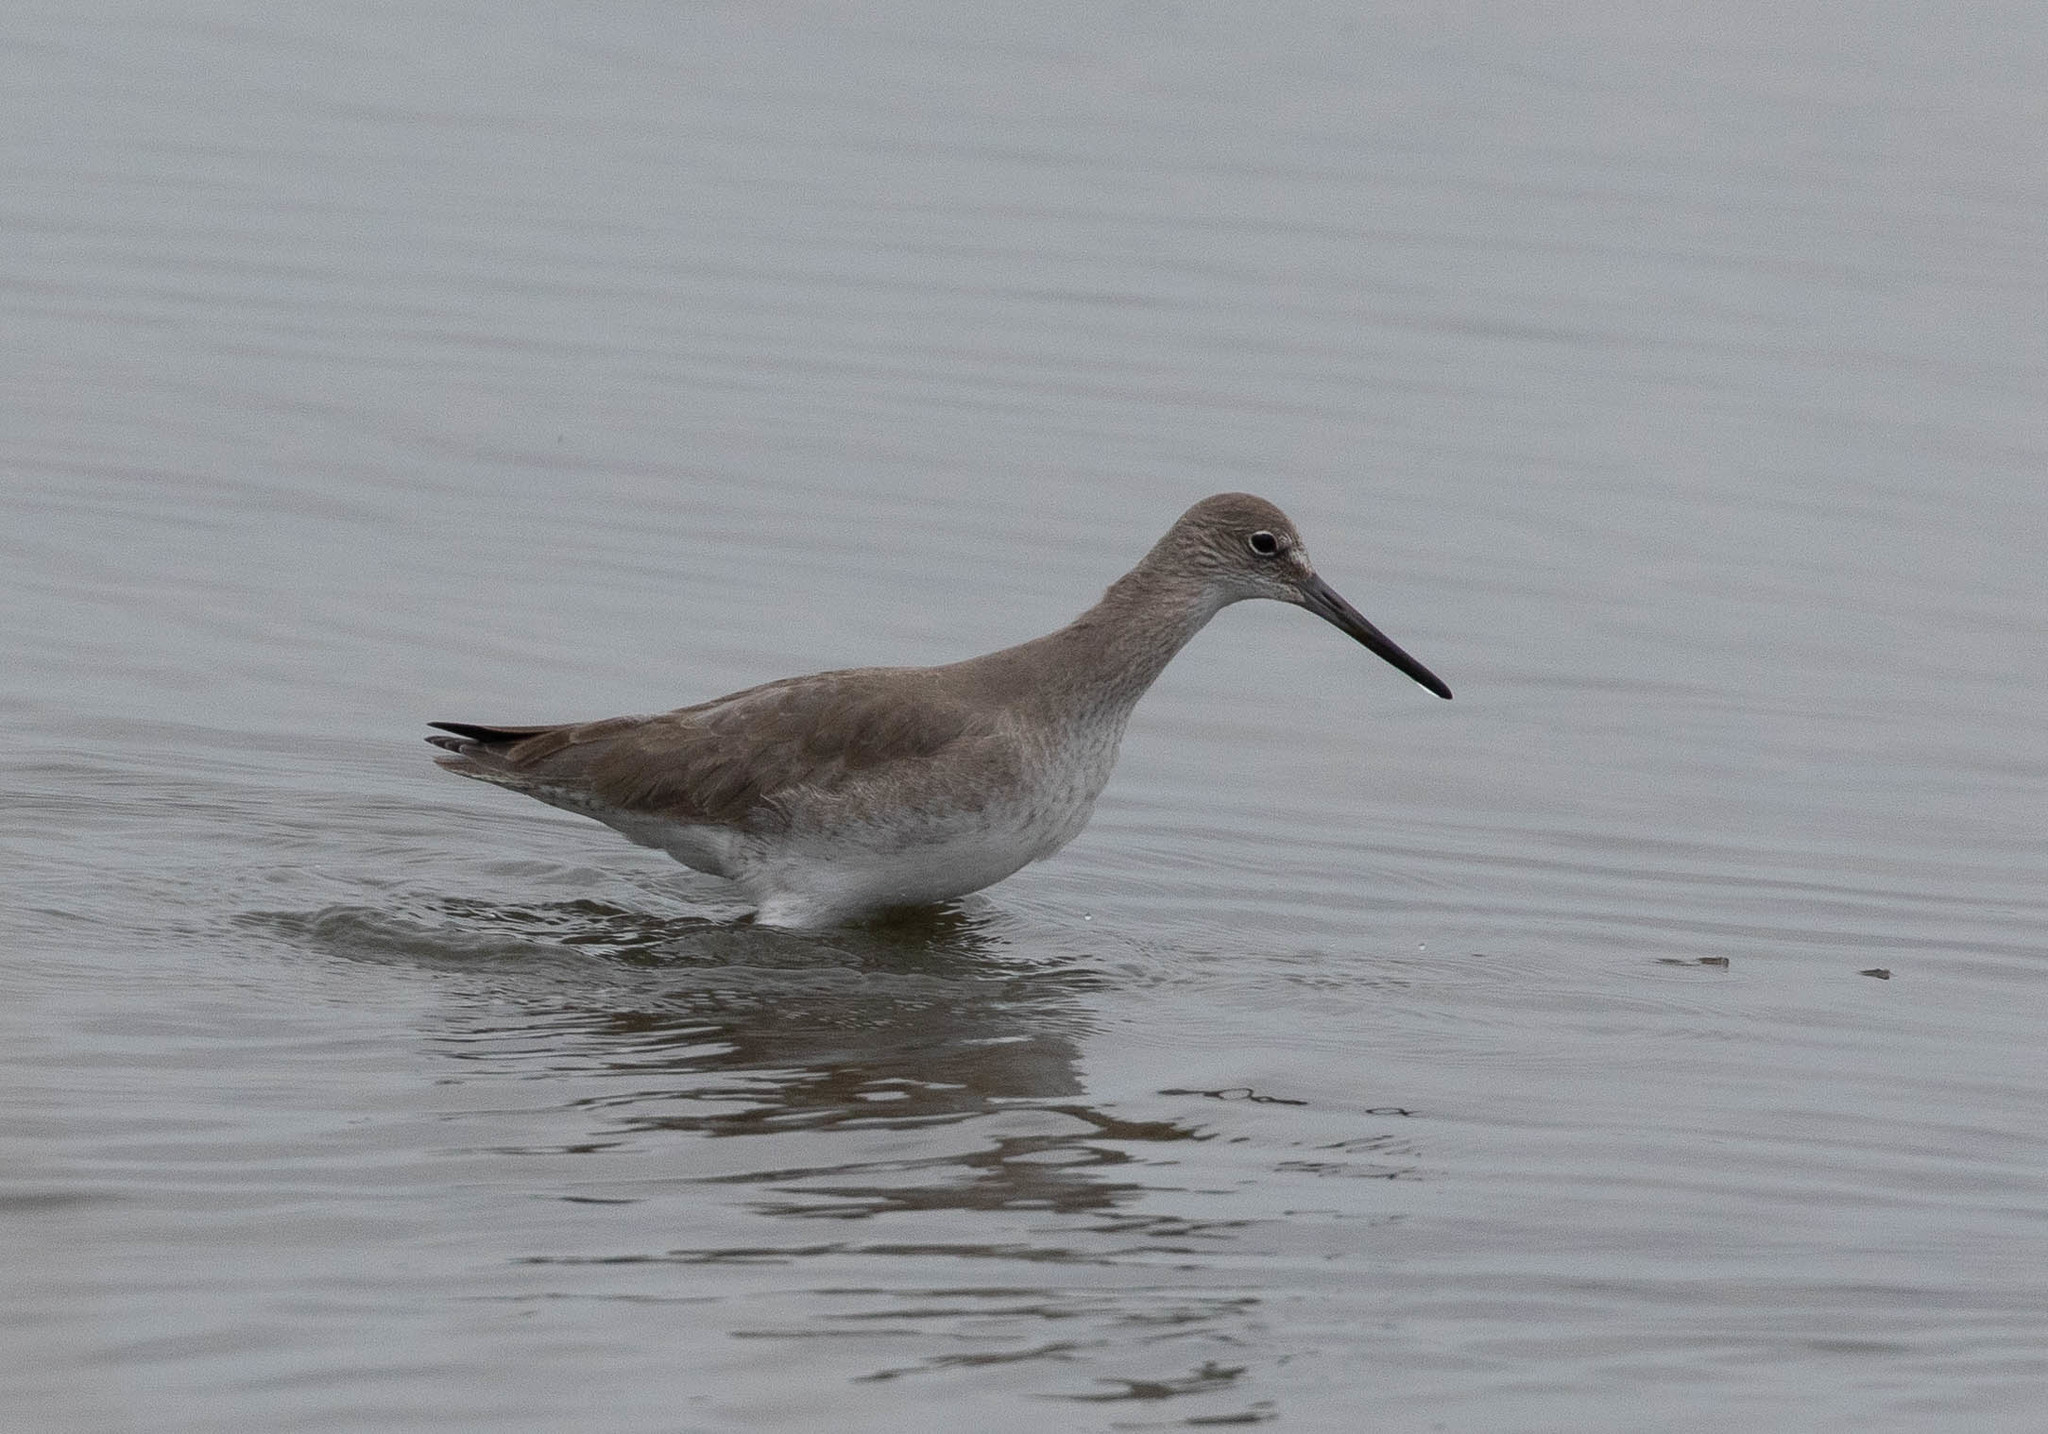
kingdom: Animalia
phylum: Chordata
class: Aves
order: Charadriiformes
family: Scolopacidae
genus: Tringa
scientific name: Tringa semipalmata
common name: Willet
